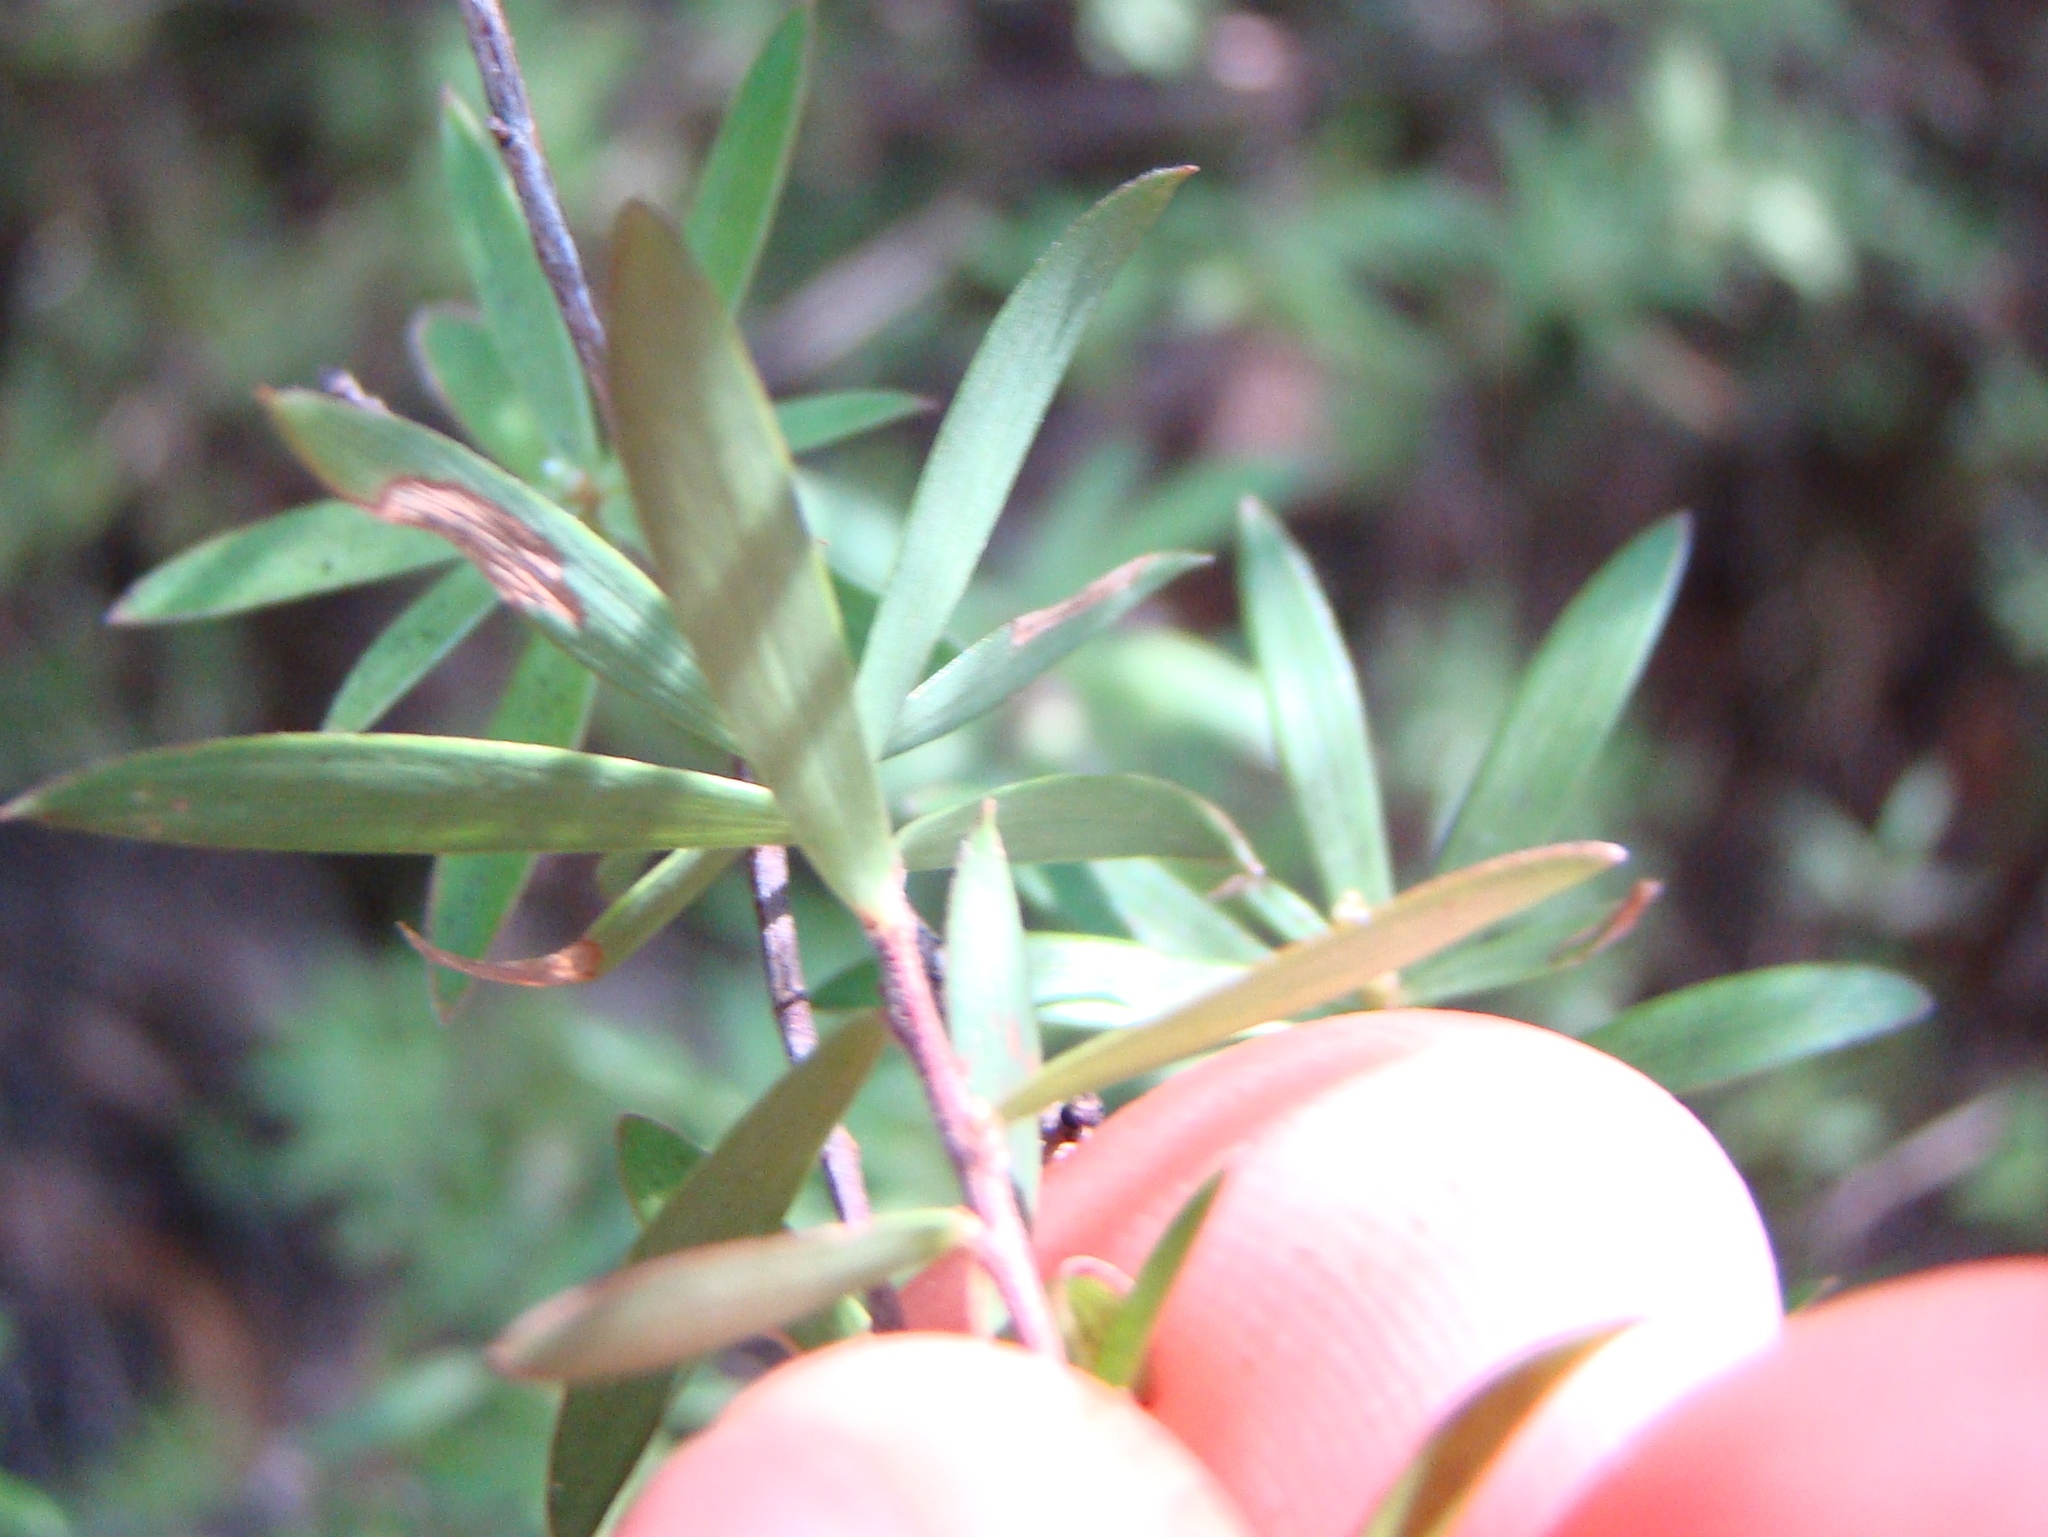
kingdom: Plantae
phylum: Tracheophyta
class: Magnoliopsida
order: Ericales
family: Ericaceae
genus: Leucopogon
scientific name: Leucopogon fasciculatus
